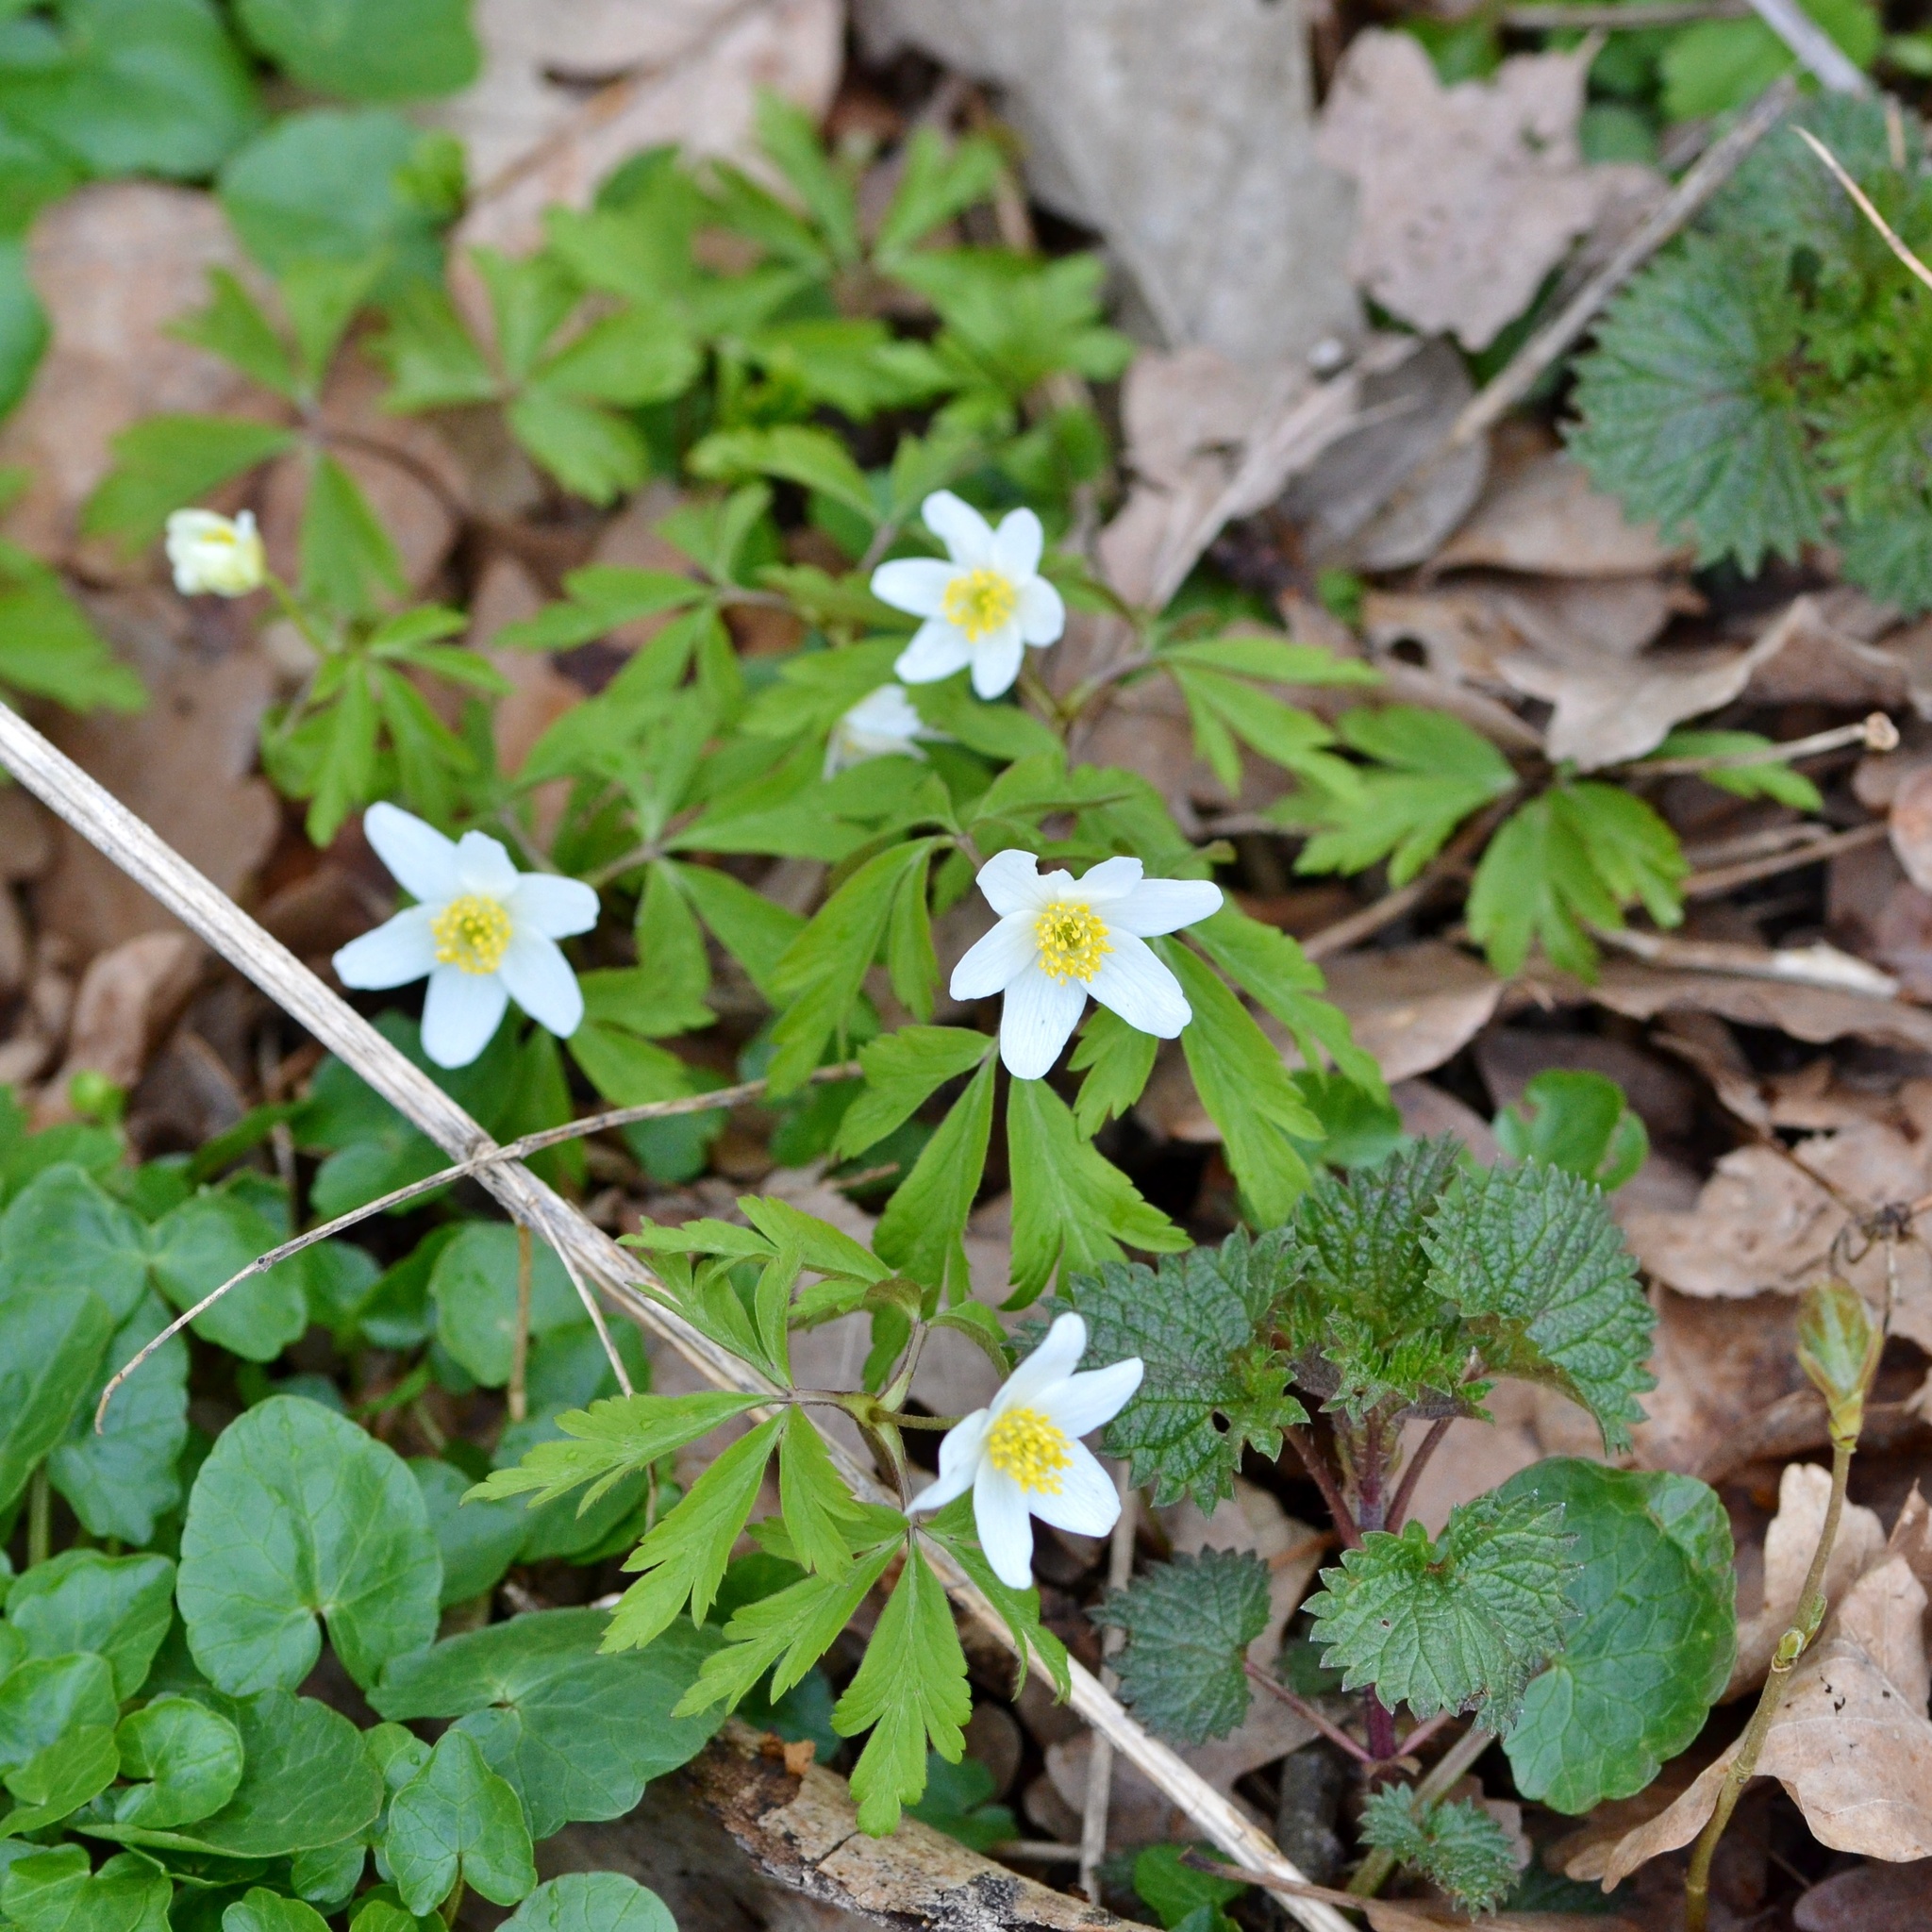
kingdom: Plantae
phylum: Tracheophyta
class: Magnoliopsida
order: Ranunculales
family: Ranunculaceae
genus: Anemone
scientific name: Anemone nemorosa
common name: Wood anemone
